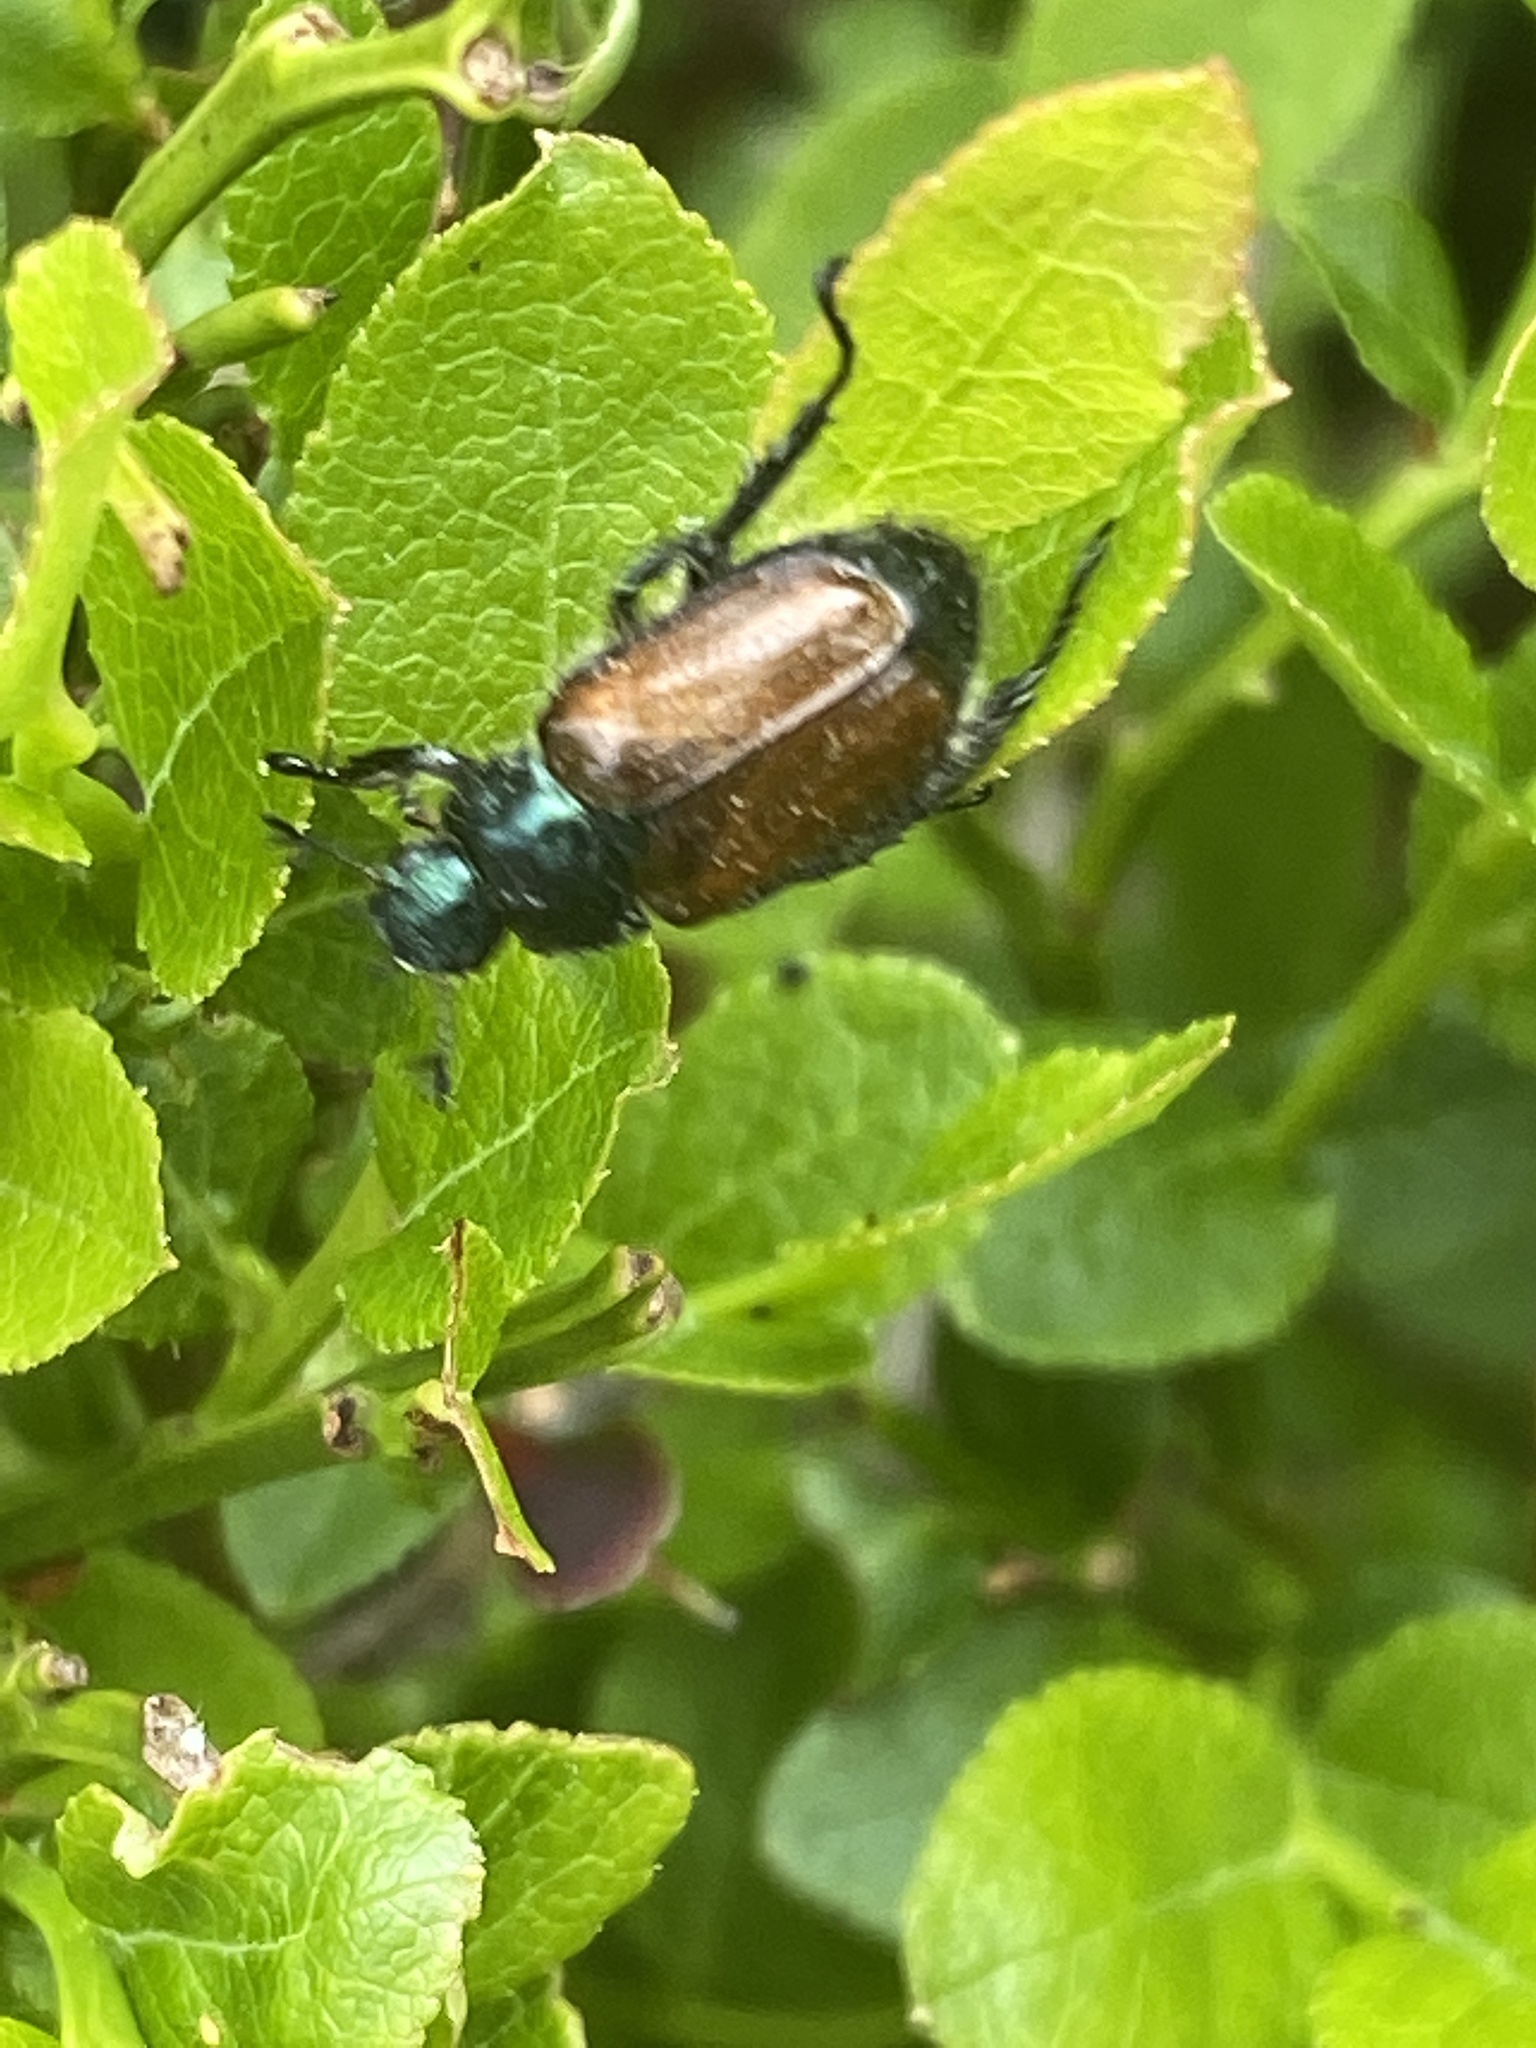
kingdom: Animalia
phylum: Arthropoda
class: Insecta
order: Coleoptera
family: Scarabaeidae
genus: Phyllopertha
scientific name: Phyllopertha horticola
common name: Garden chafer
